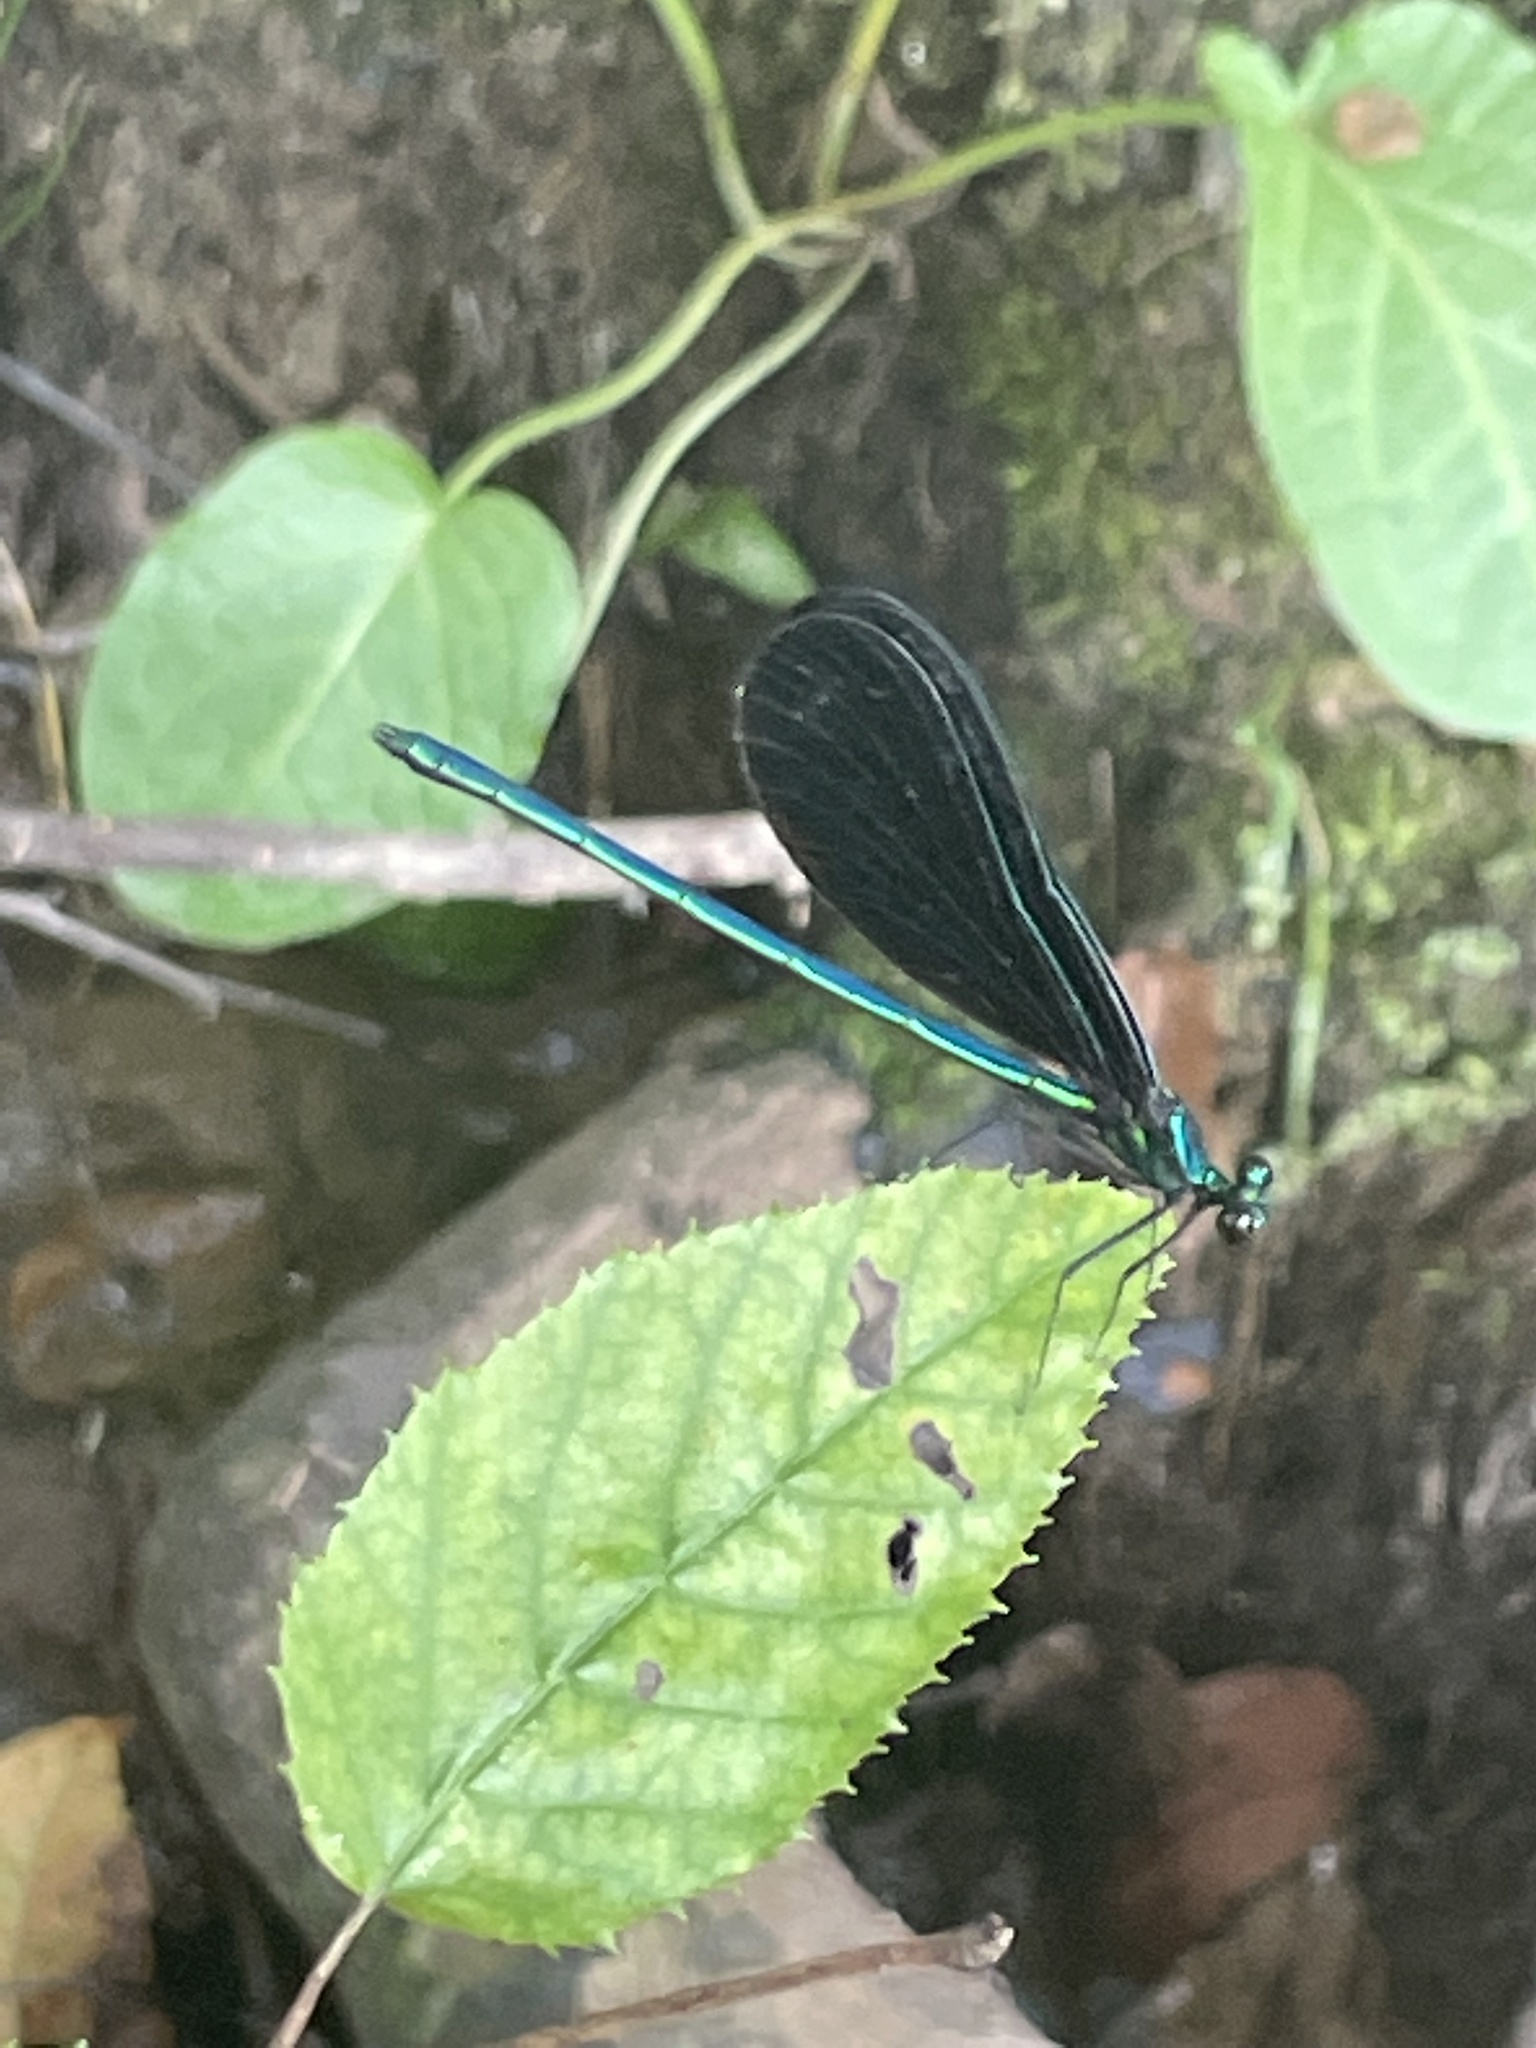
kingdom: Animalia
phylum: Arthropoda
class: Insecta
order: Odonata
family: Calopterygidae
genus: Calopteryx
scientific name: Calopteryx maculata
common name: Ebony jewelwing
